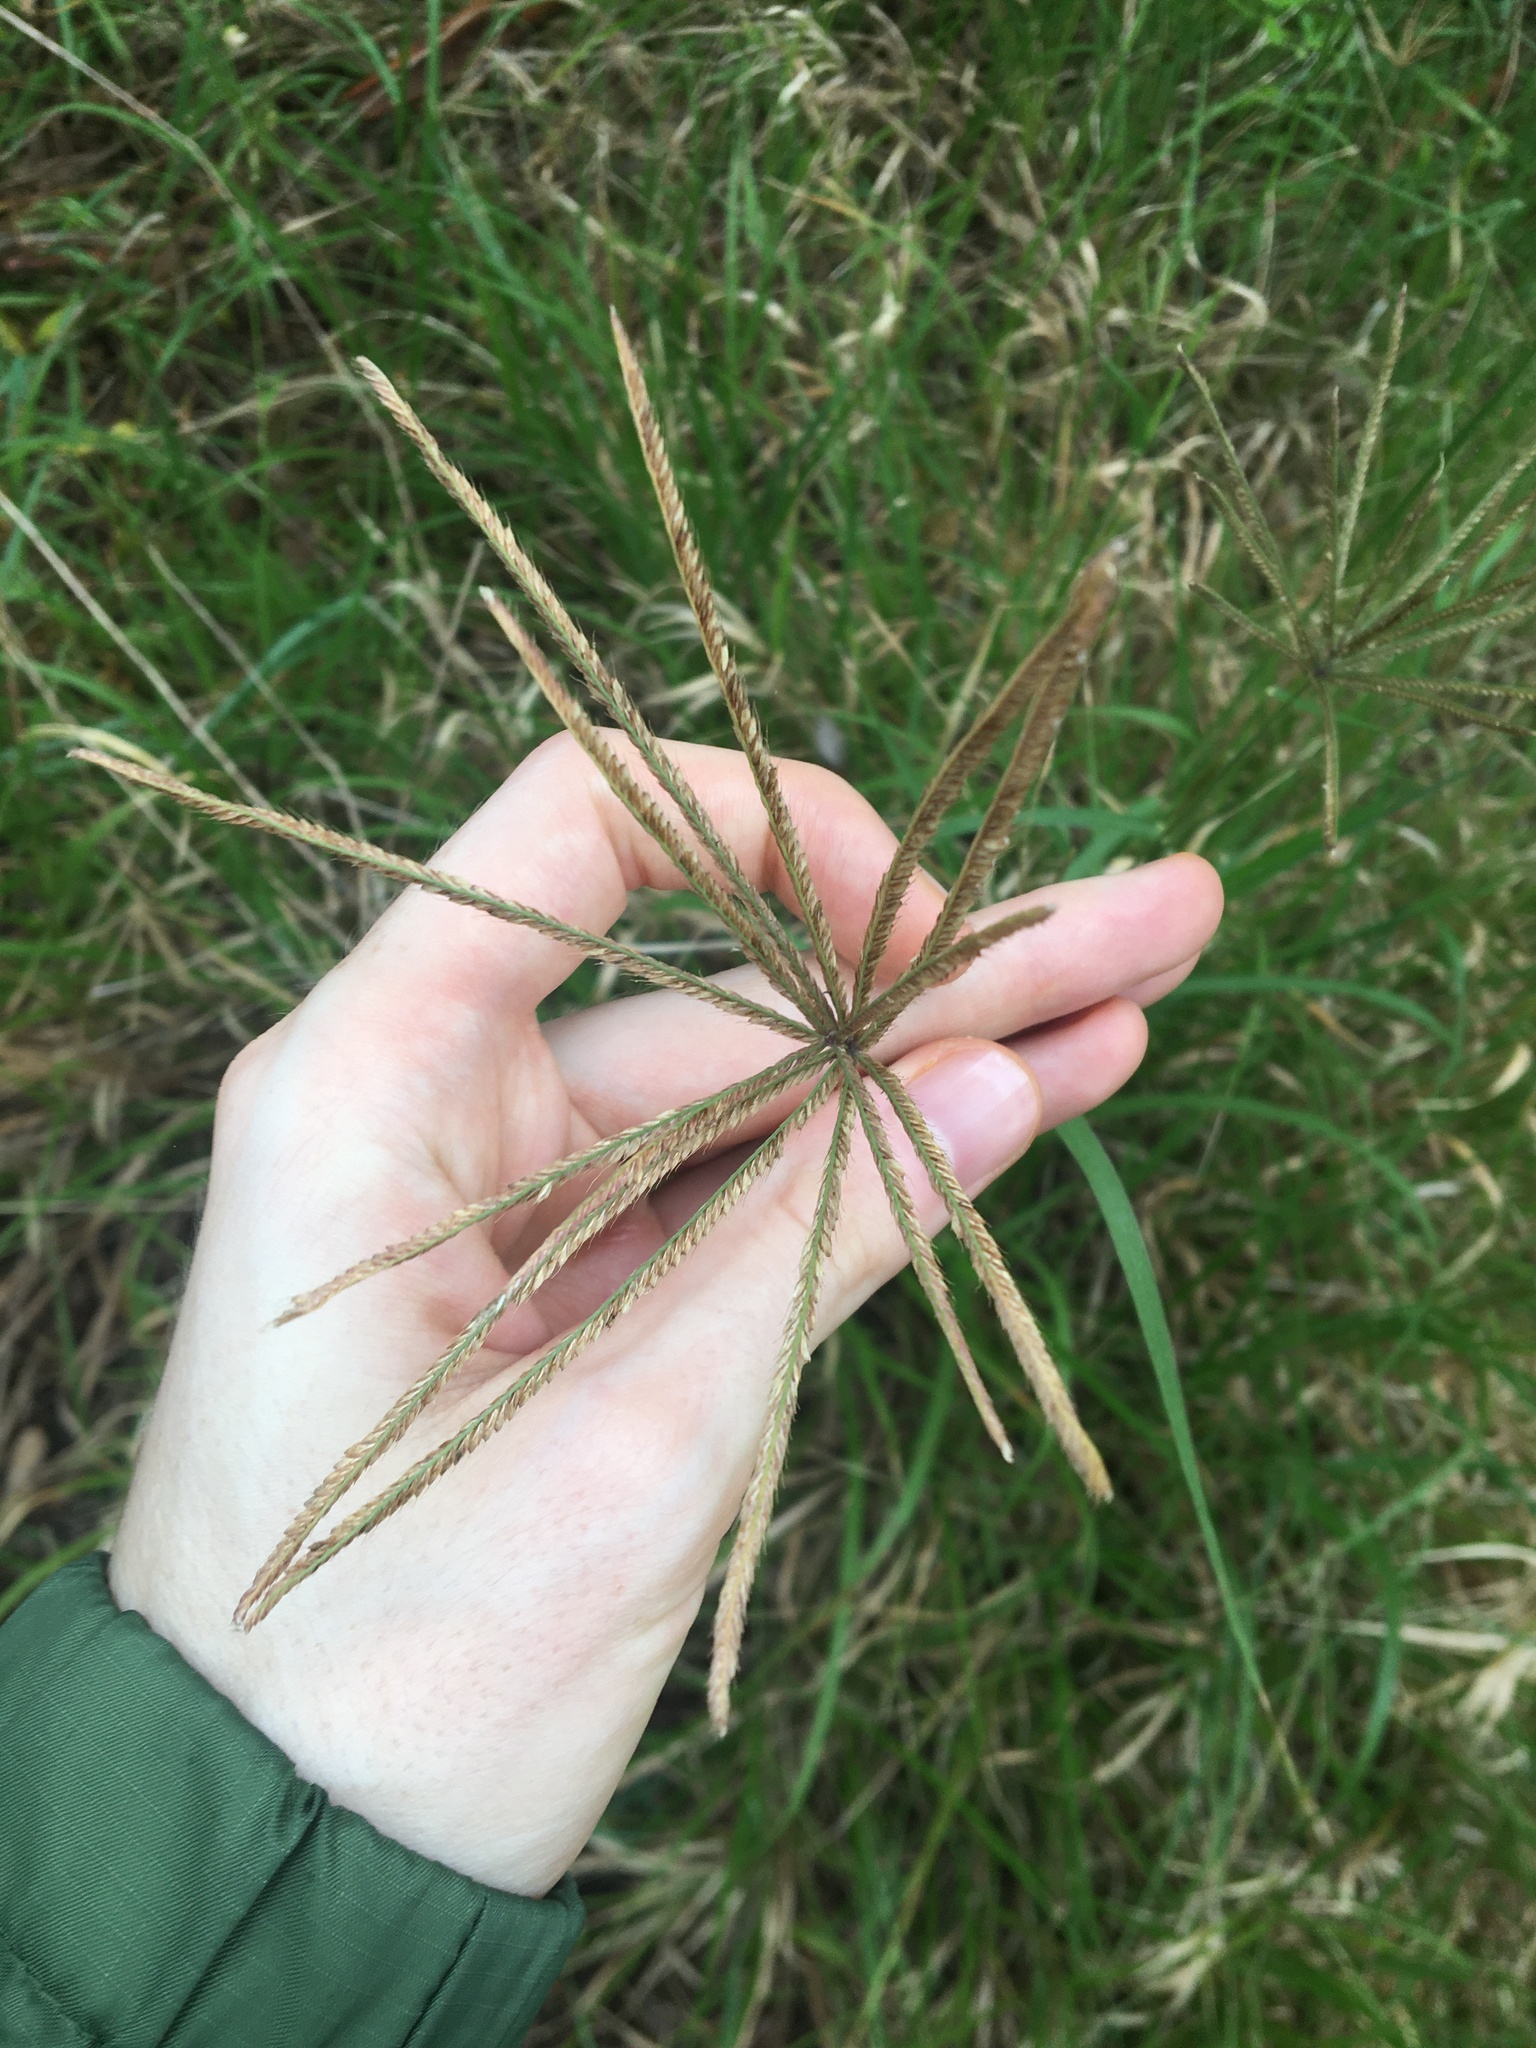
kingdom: Plantae
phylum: Tracheophyta
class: Liliopsida
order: Poales
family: Poaceae
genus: Chloris
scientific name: Chloris gayana
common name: Rhodes grass
